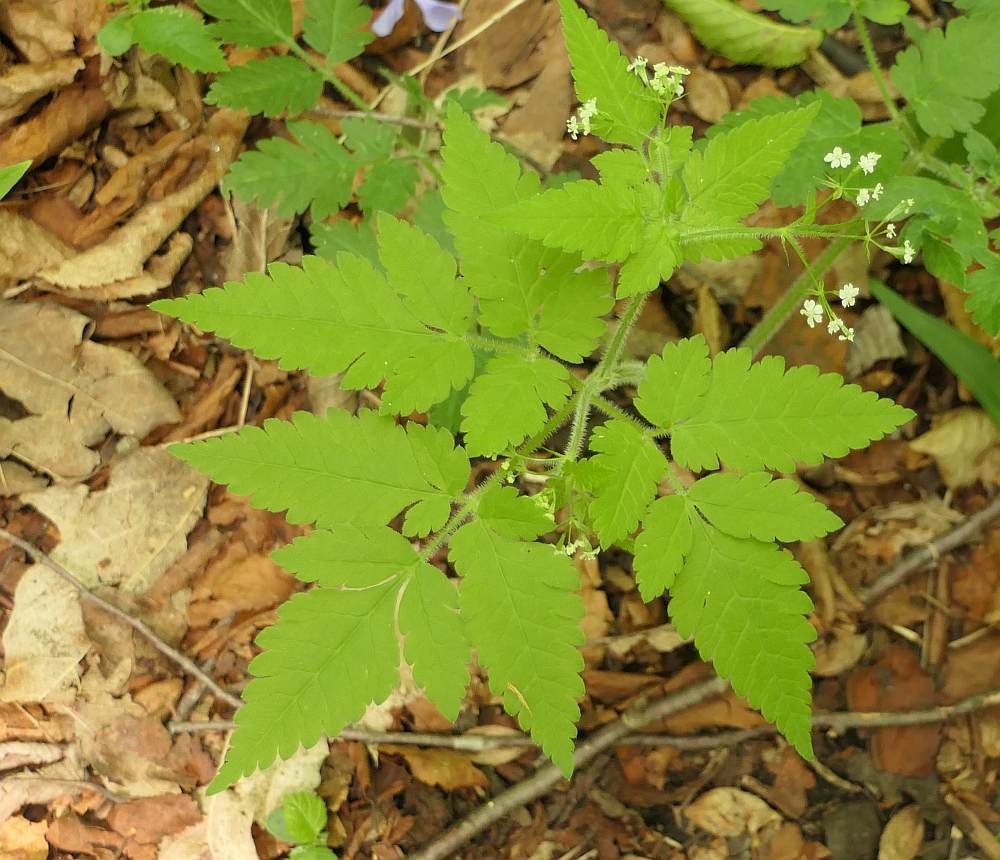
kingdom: Plantae
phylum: Tracheophyta
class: Magnoliopsida
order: Apiales
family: Apiaceae
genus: Osmorhiza
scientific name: Osmorhiza claytonii
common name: Hairy sweet cicely
